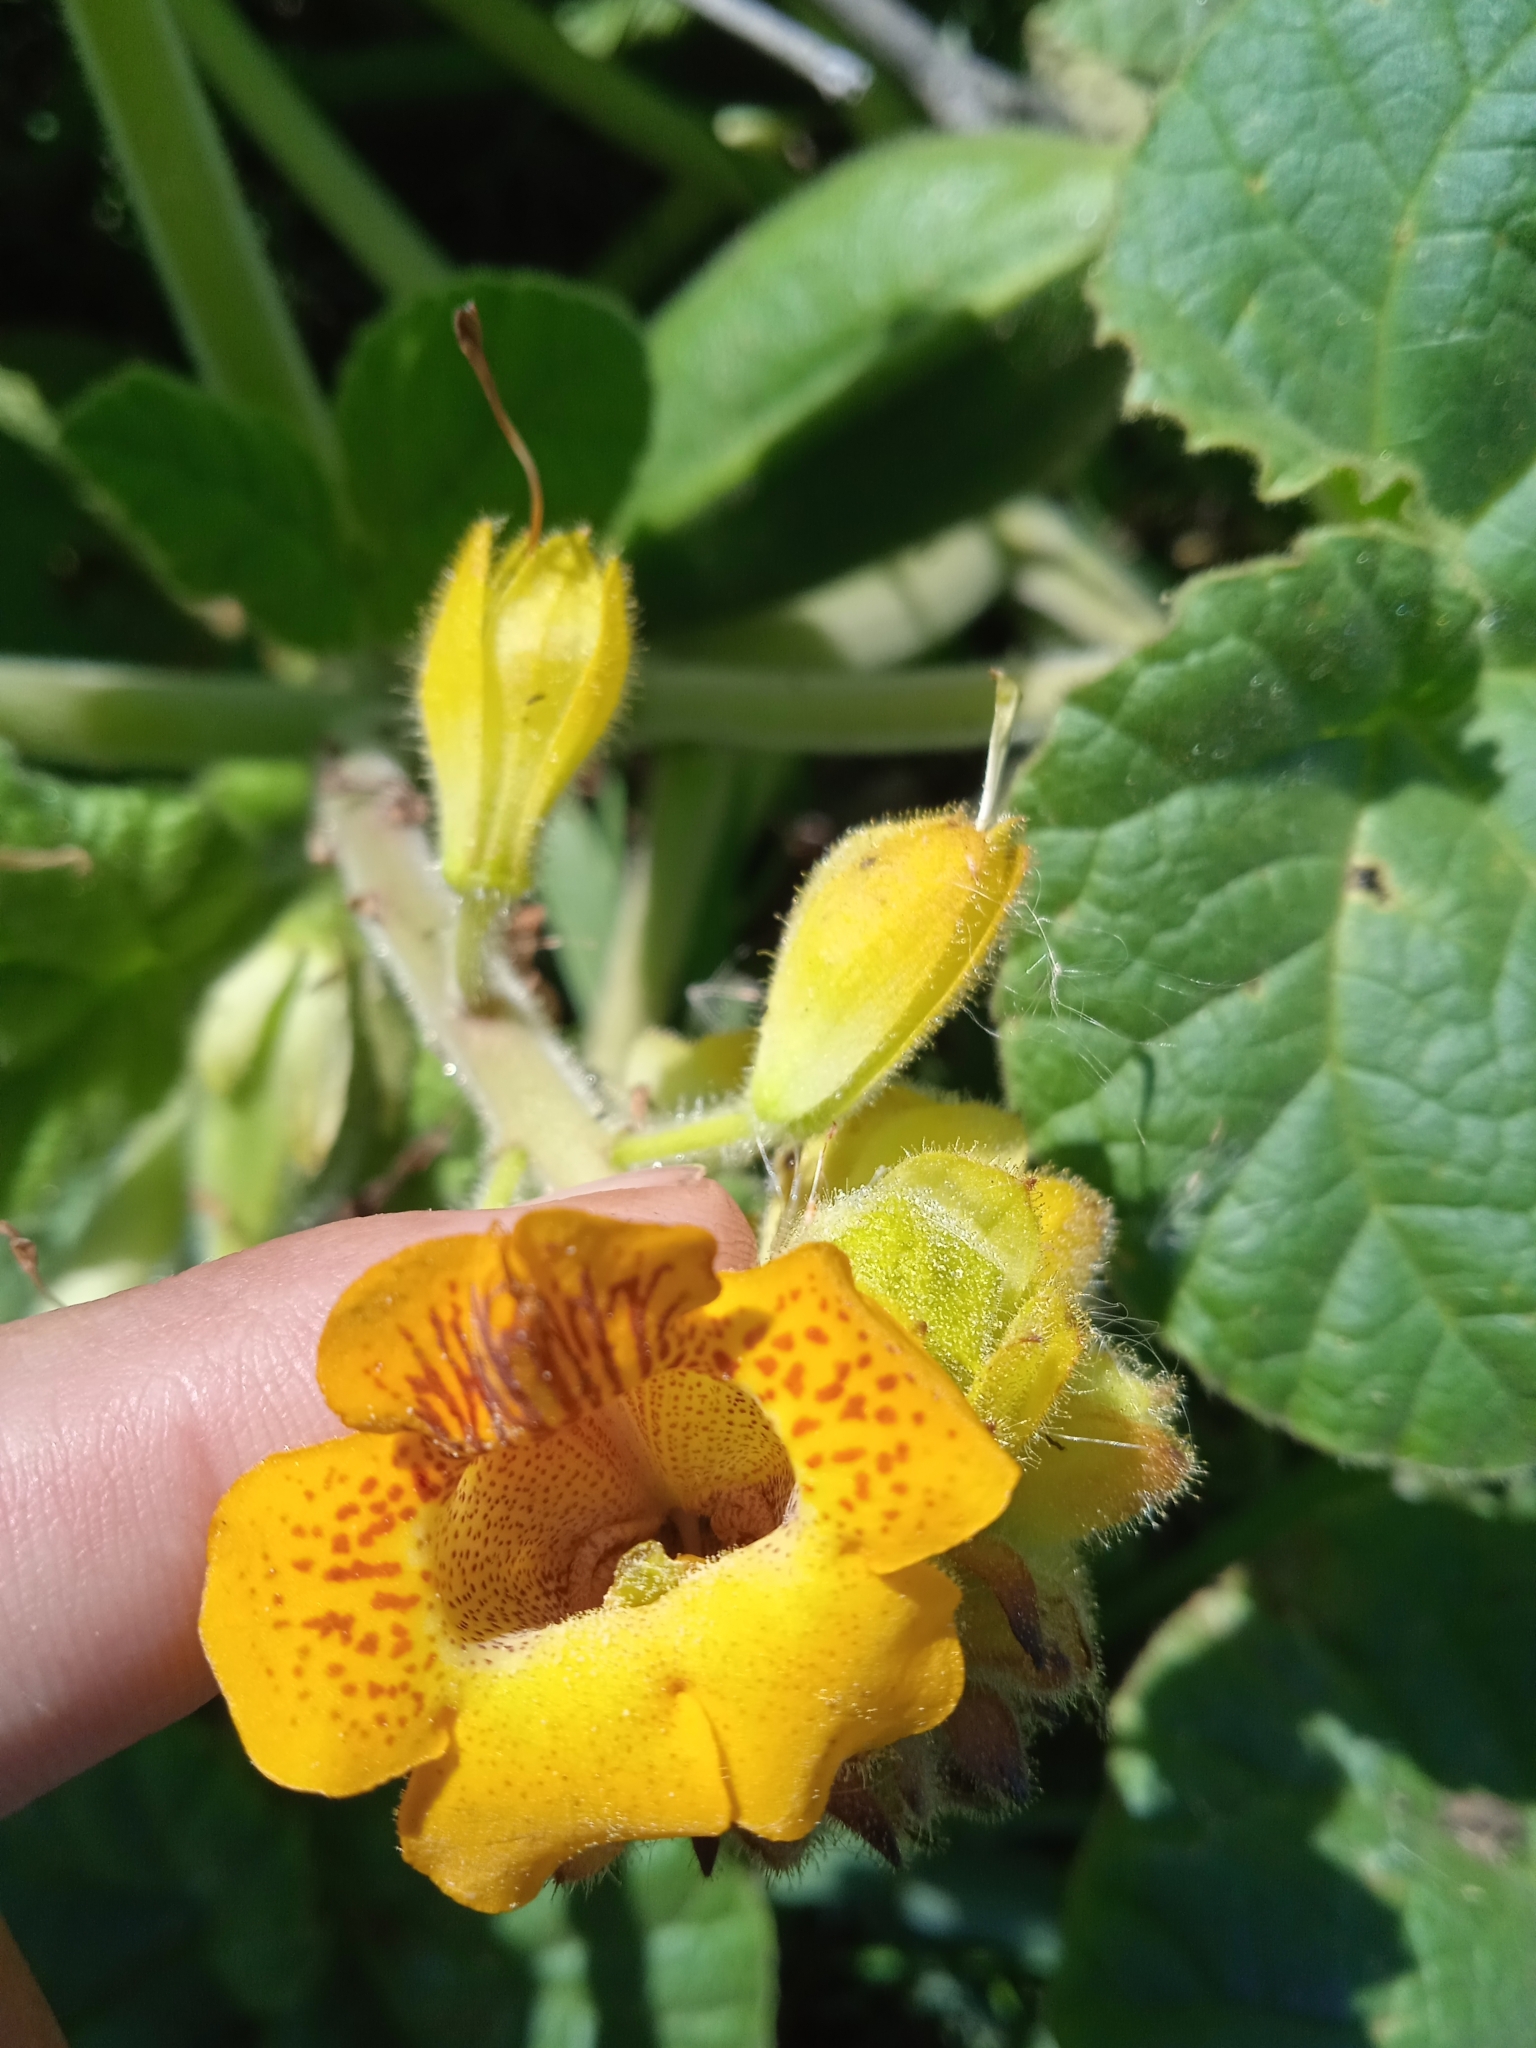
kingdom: Plantae
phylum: Tracheophyta
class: Magnoliopsida
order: Lamiales
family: Martyniaceae
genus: Ibicella
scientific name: Ibicella lutea
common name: Yellow unicorn-plant
